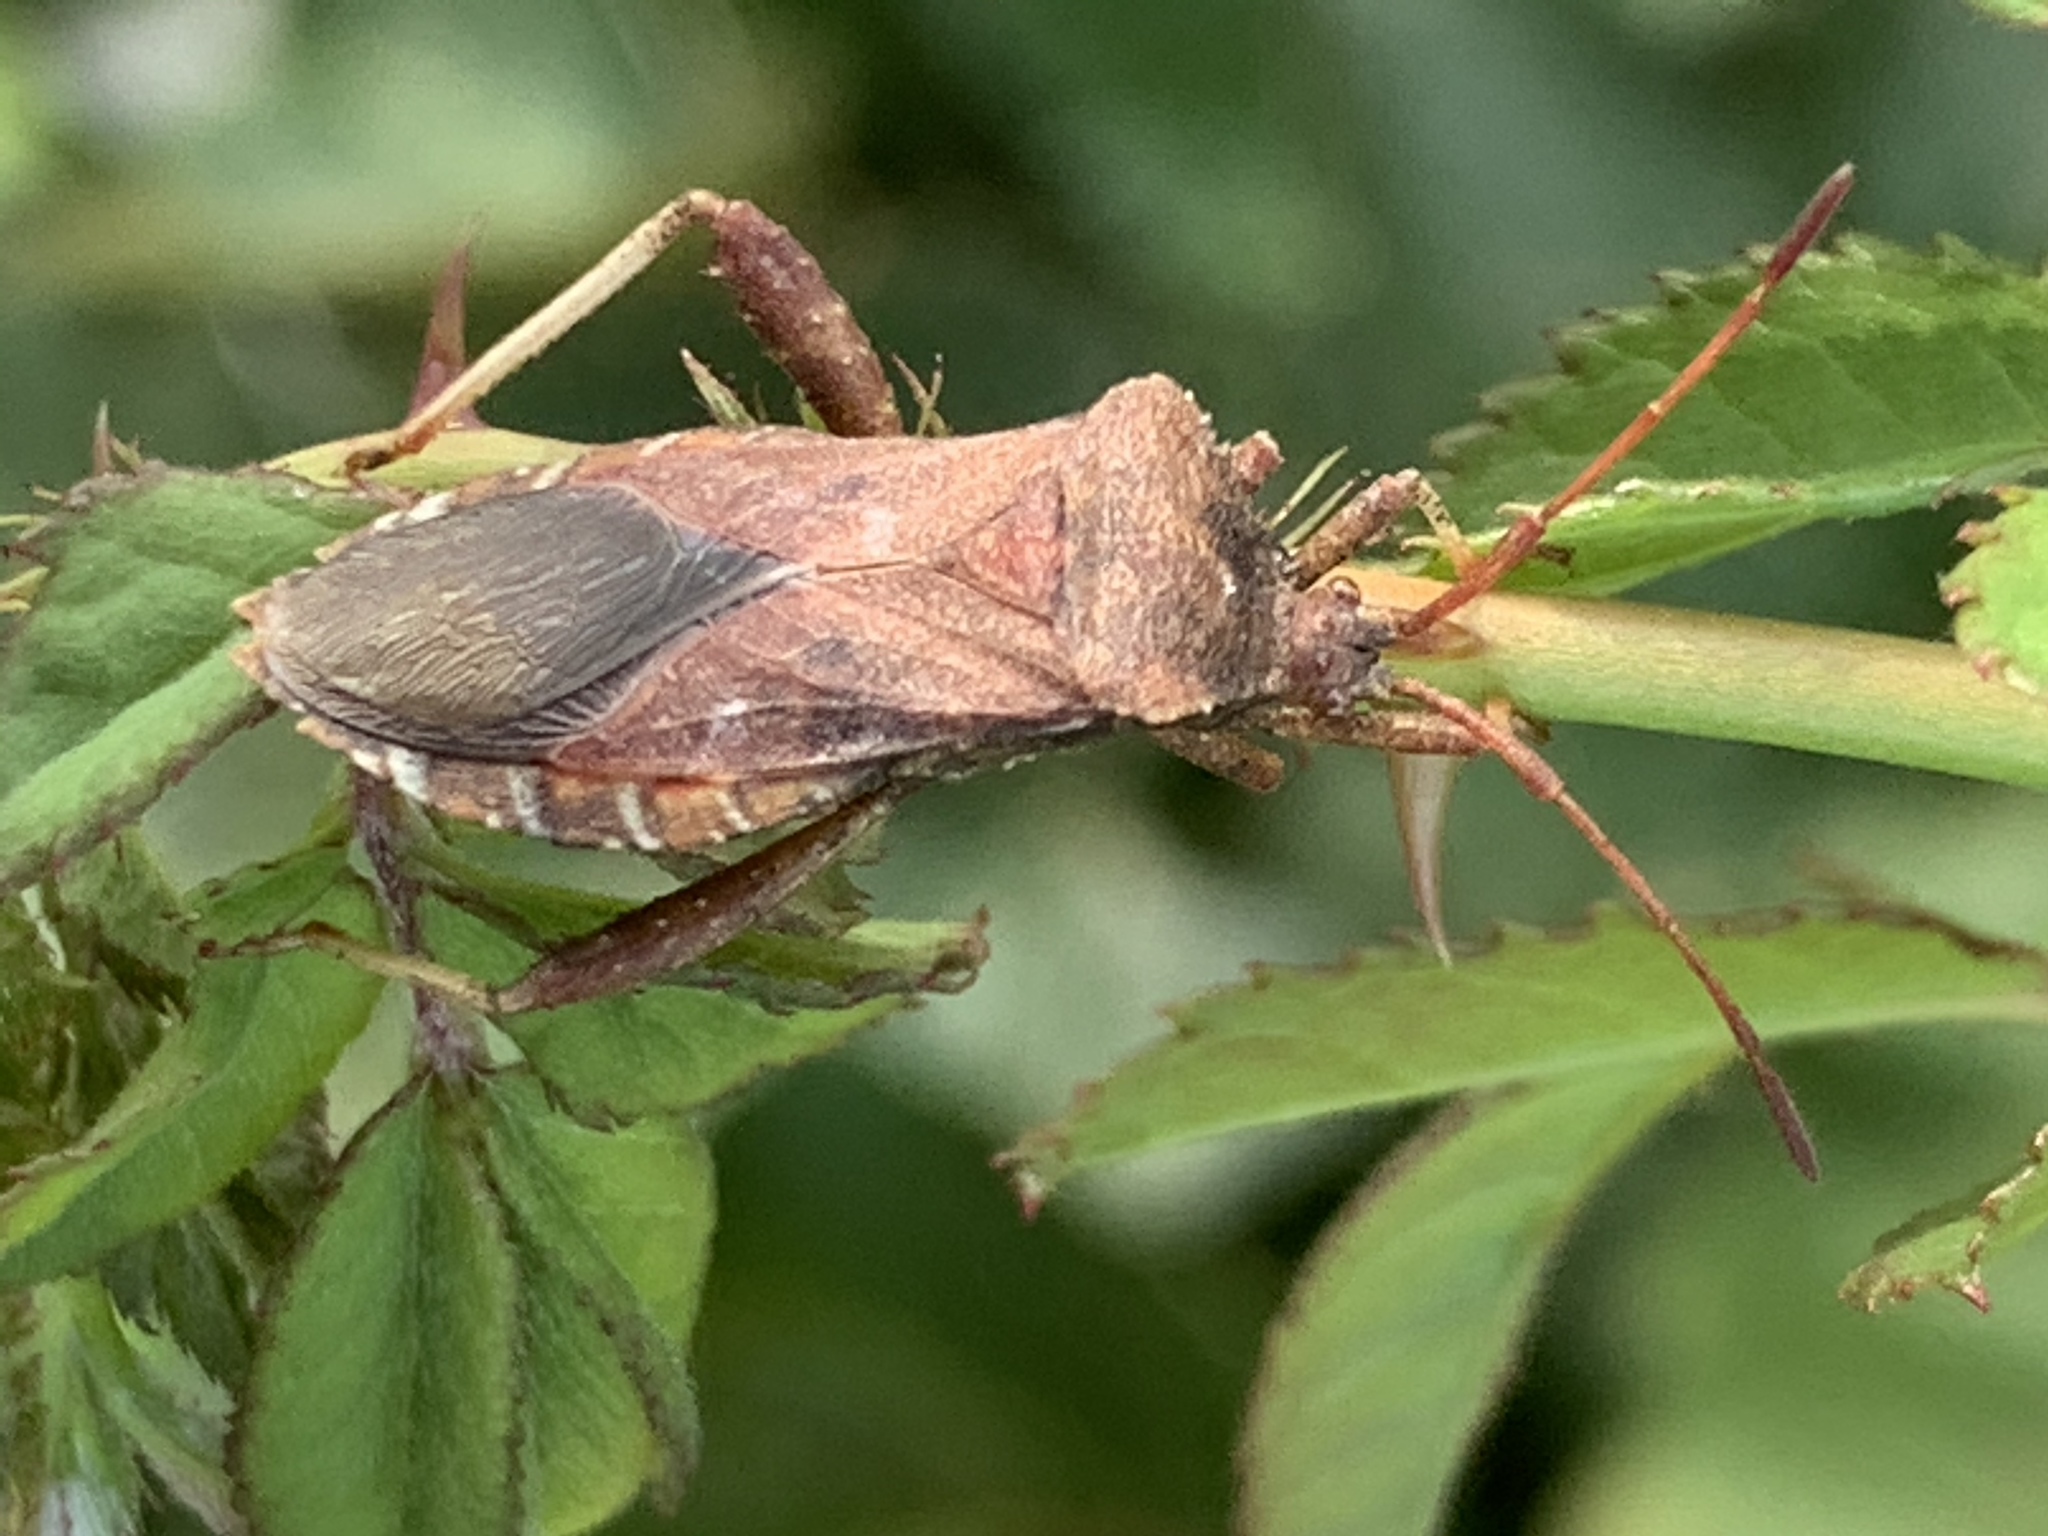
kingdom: Animalia
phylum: Arthropoda
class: Insecta
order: Hemiptera
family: Coreidae
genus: Euthochtha
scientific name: Euthochtha galeator
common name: Helmeted squash bug
